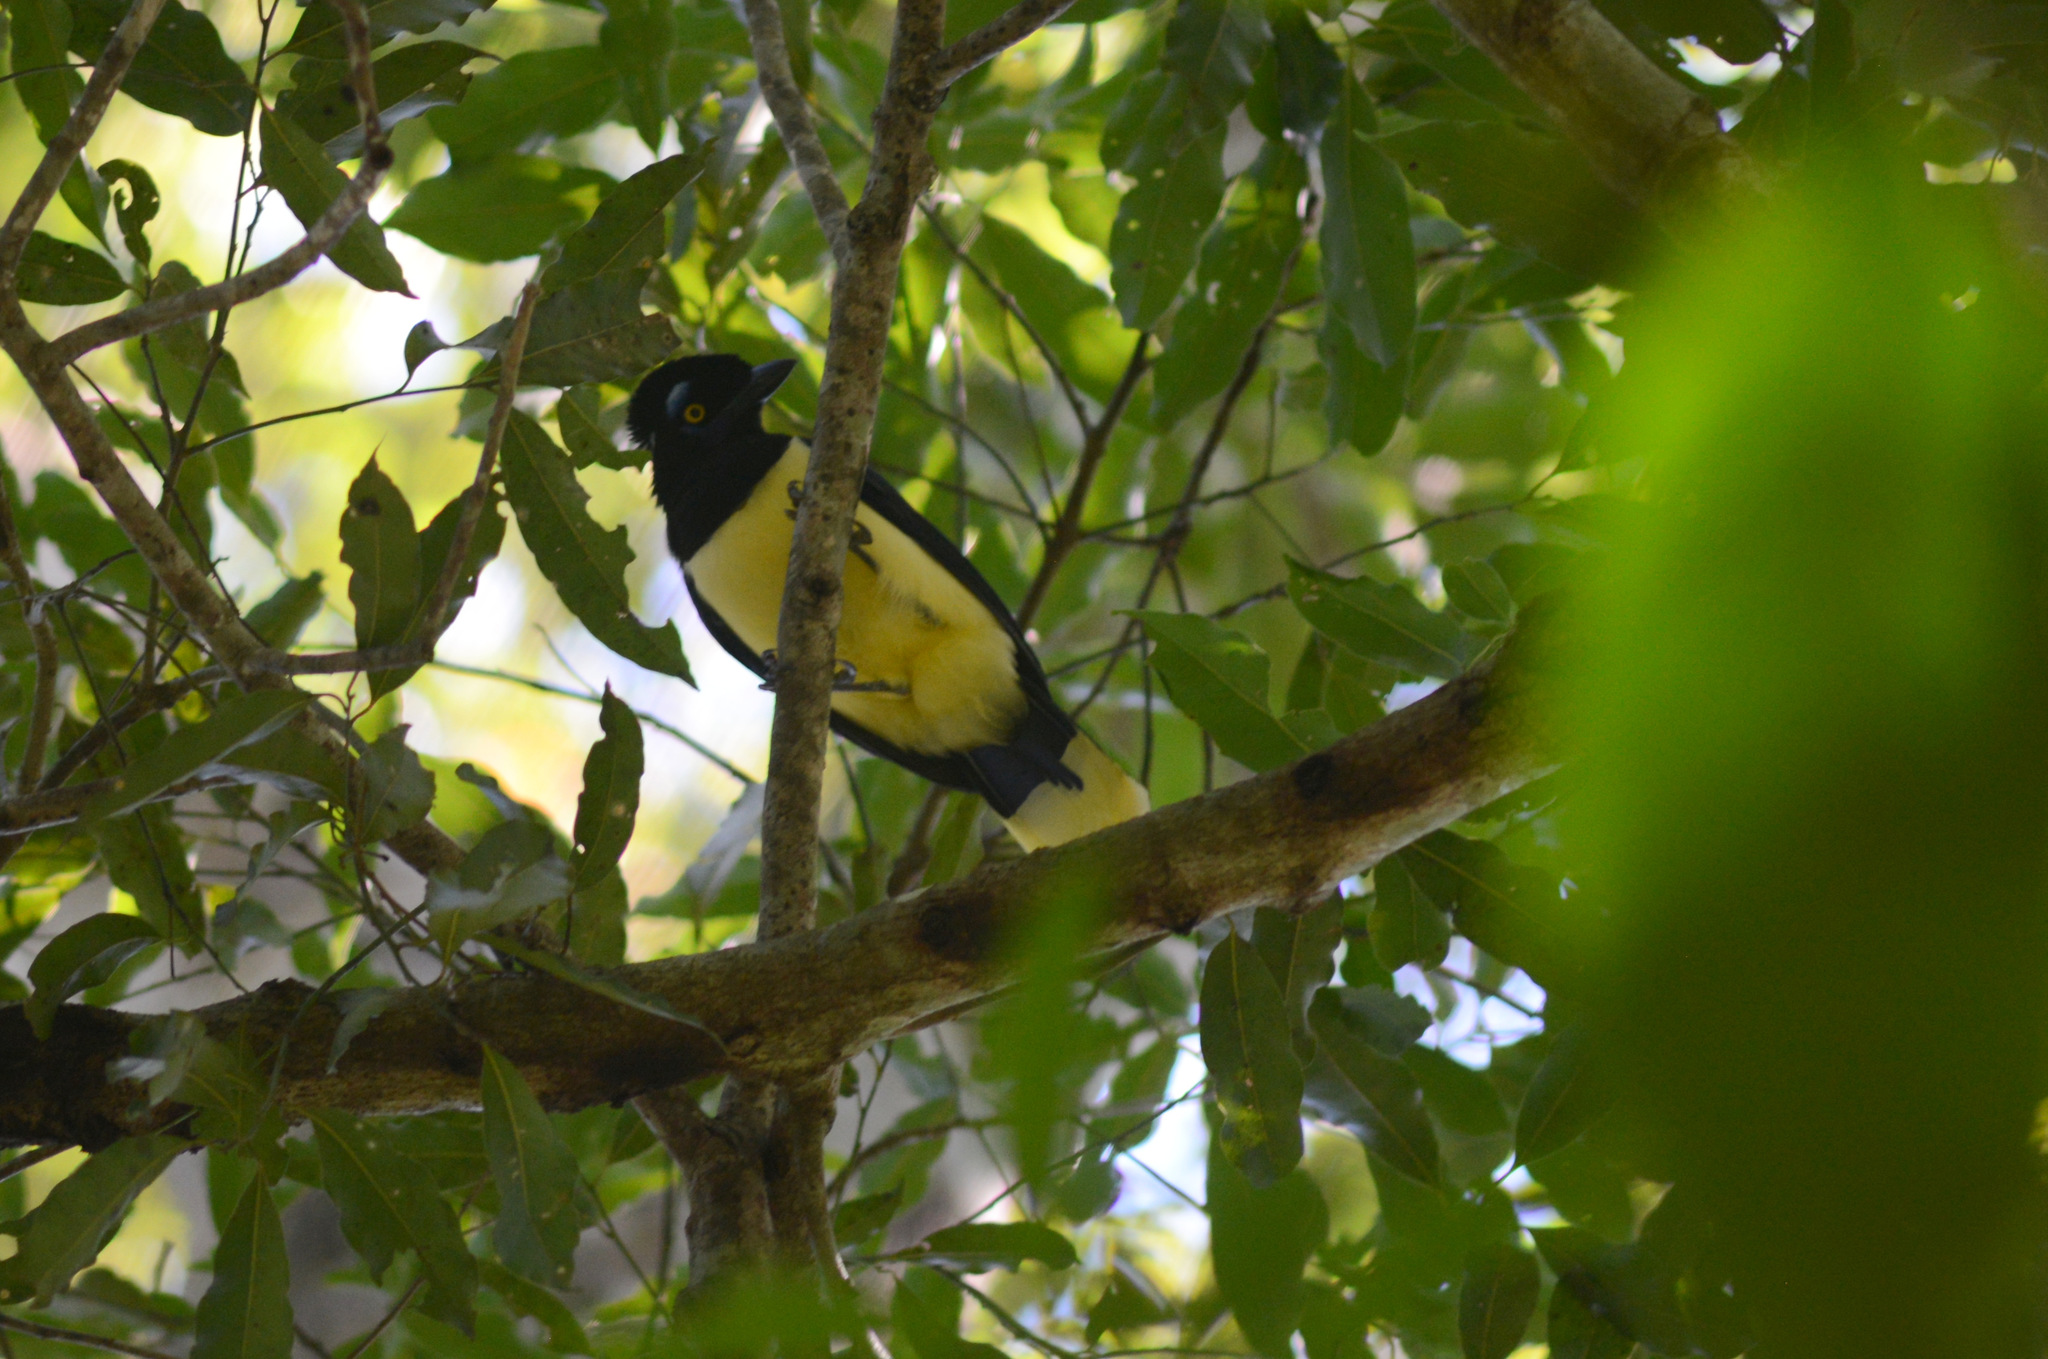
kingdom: Animalia
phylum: Chordata
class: Aves
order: Passeriformes
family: Corvidae
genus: Cyanocorax
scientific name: Cyanocorax chrysops
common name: Plush-crested jay
